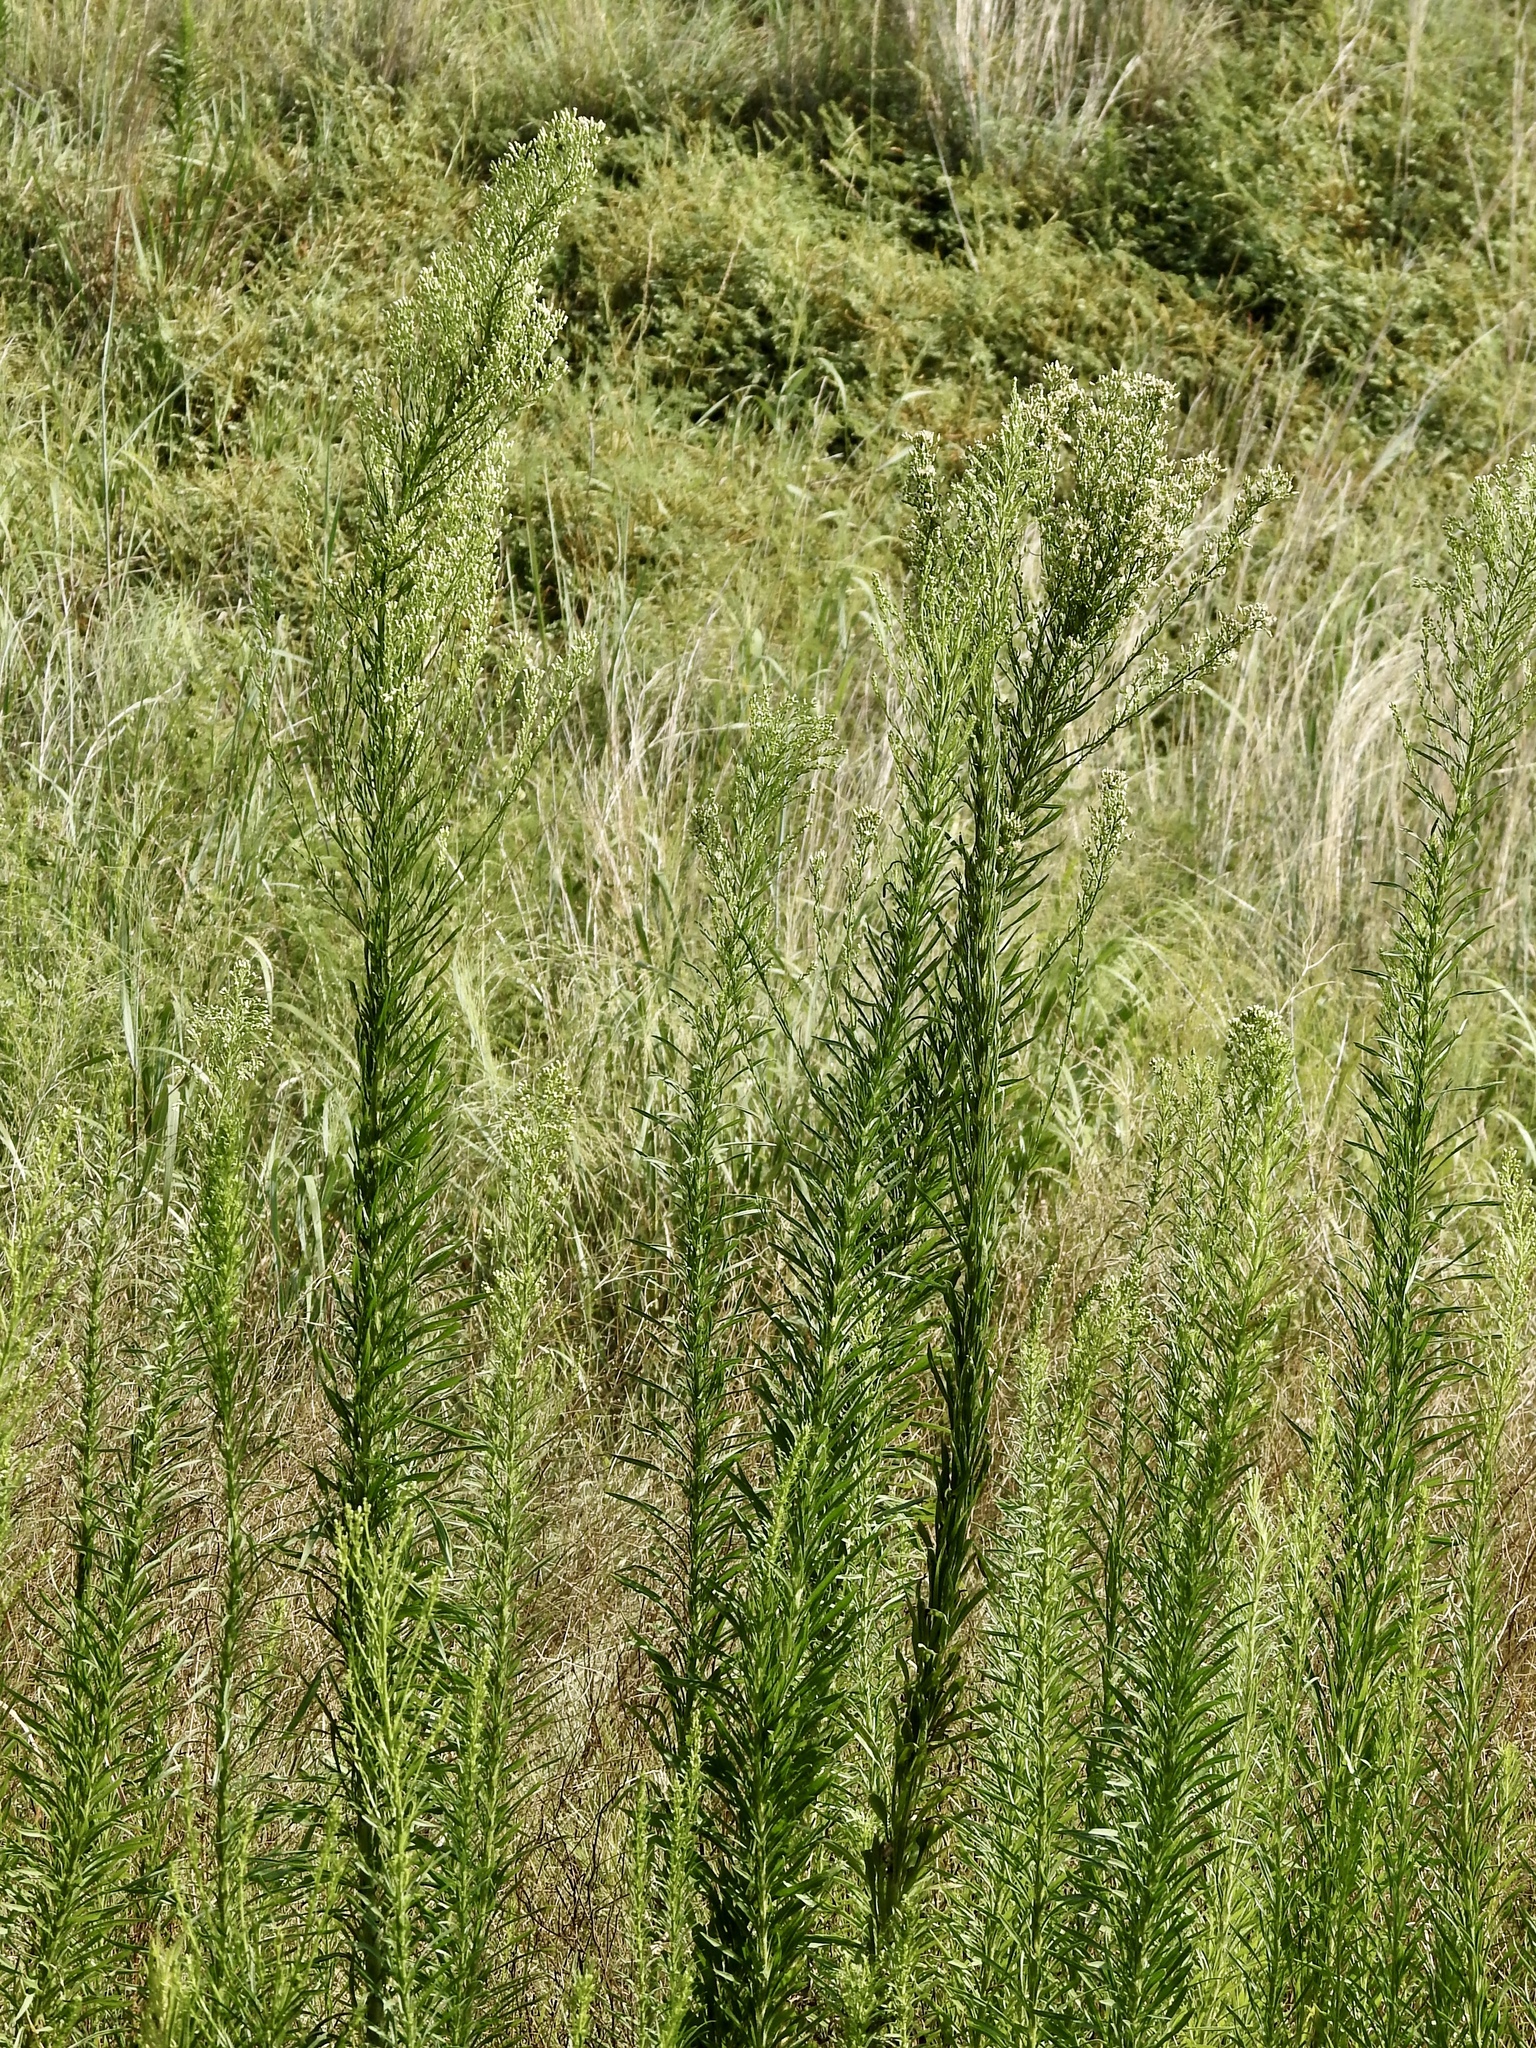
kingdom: Plantae
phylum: Tracheophyta
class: Magnoliopsida
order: Asterales
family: Asteraceae
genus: Erigeron
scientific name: Erigeron canadensis
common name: Canadian fleabane
